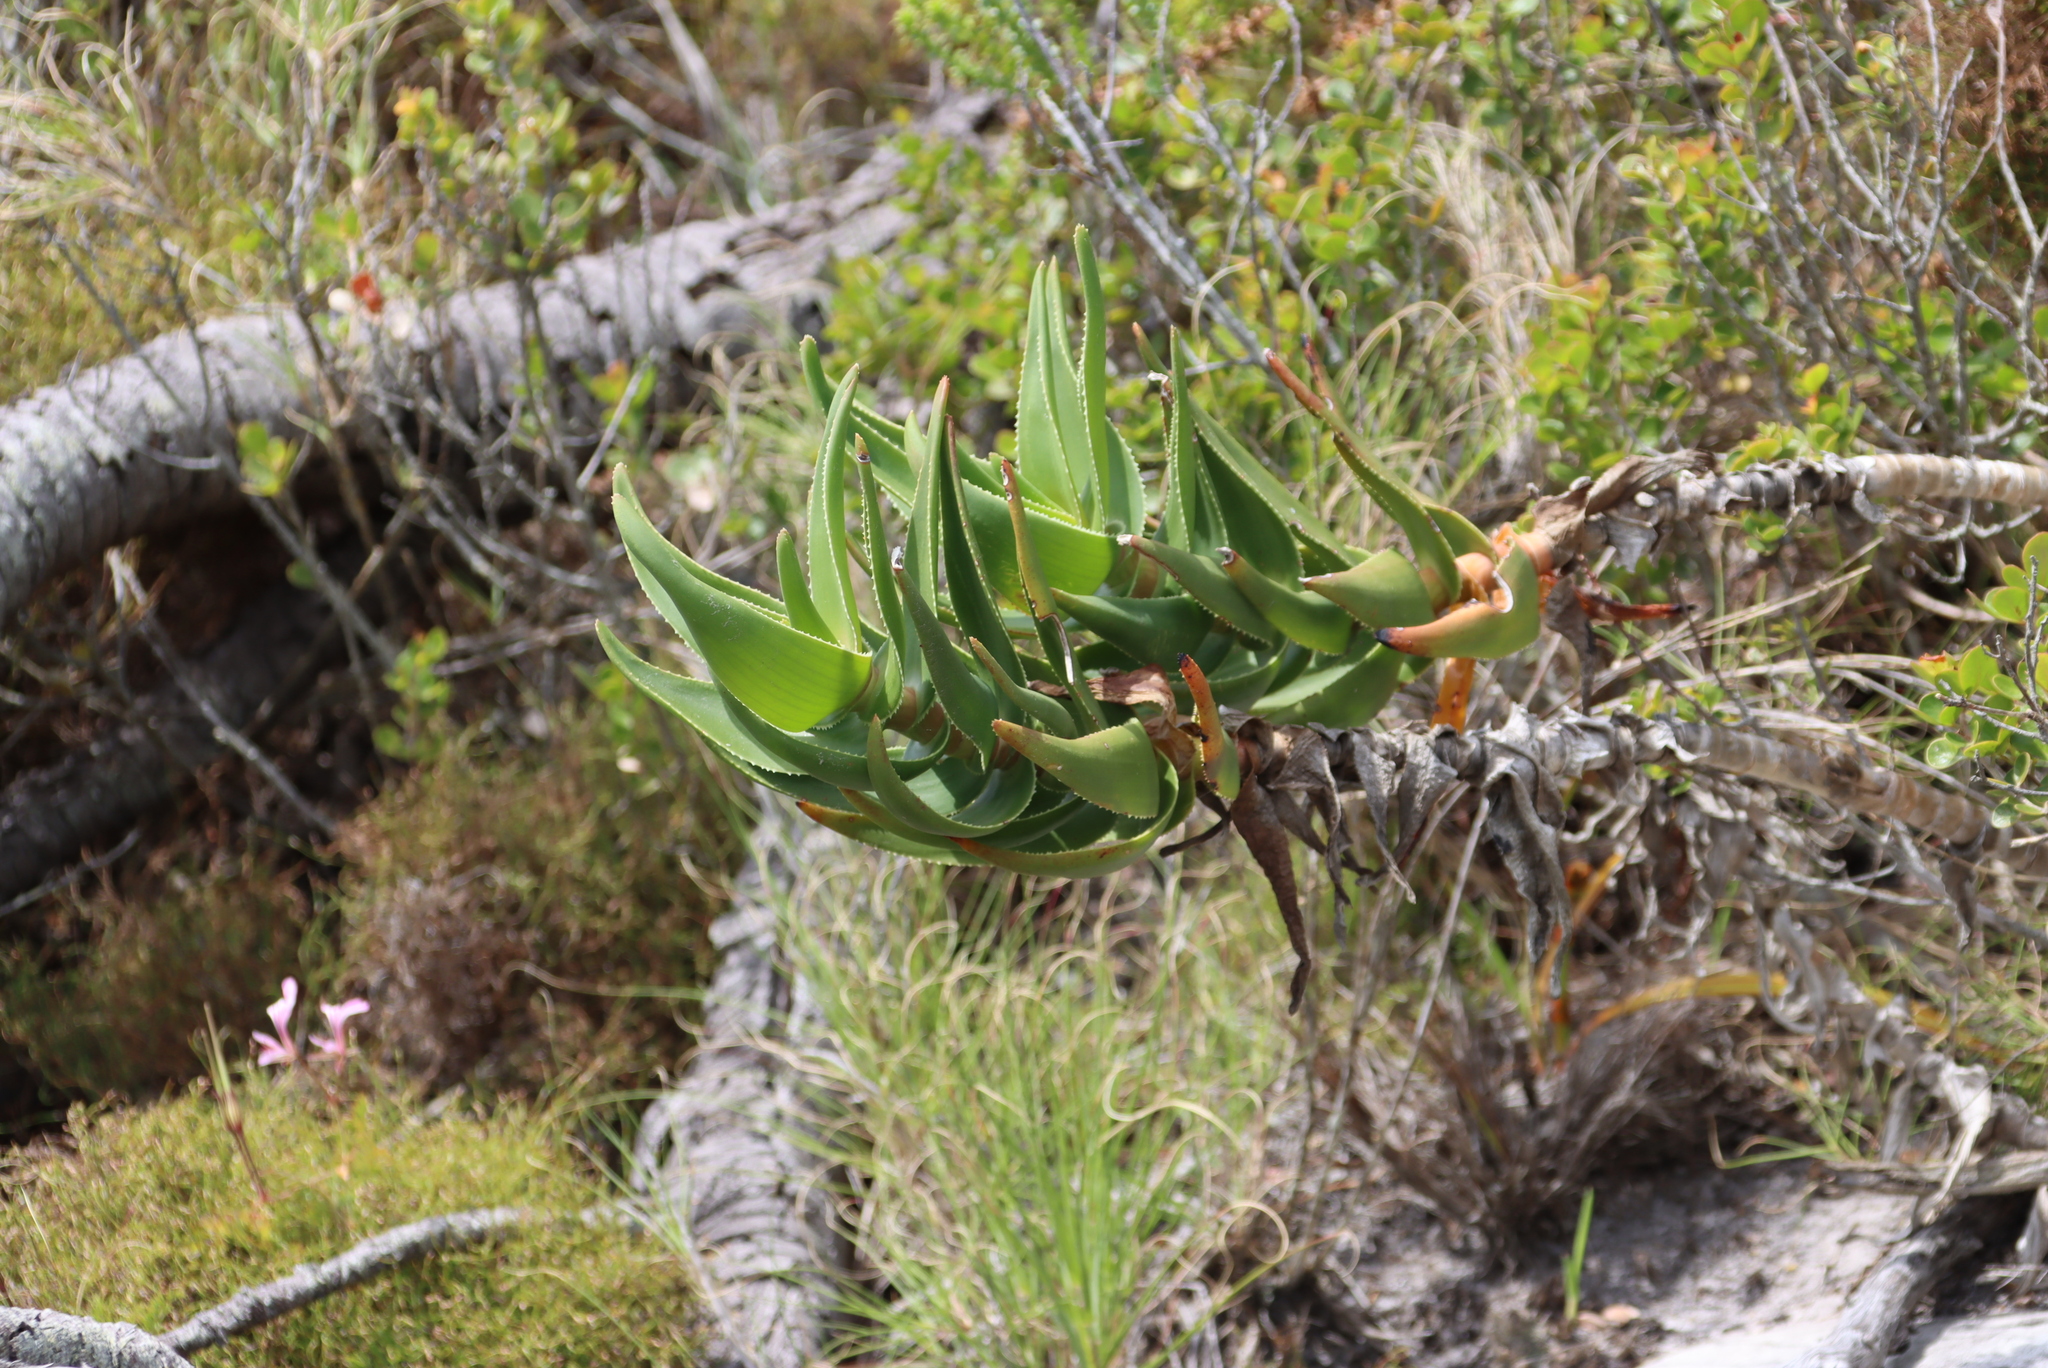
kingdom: Plantae
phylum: Tracheophyta
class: Liliopsida
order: Asparagales
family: Asphodelaceae
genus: Aloiampelos
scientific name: Aloiampelos commixta
